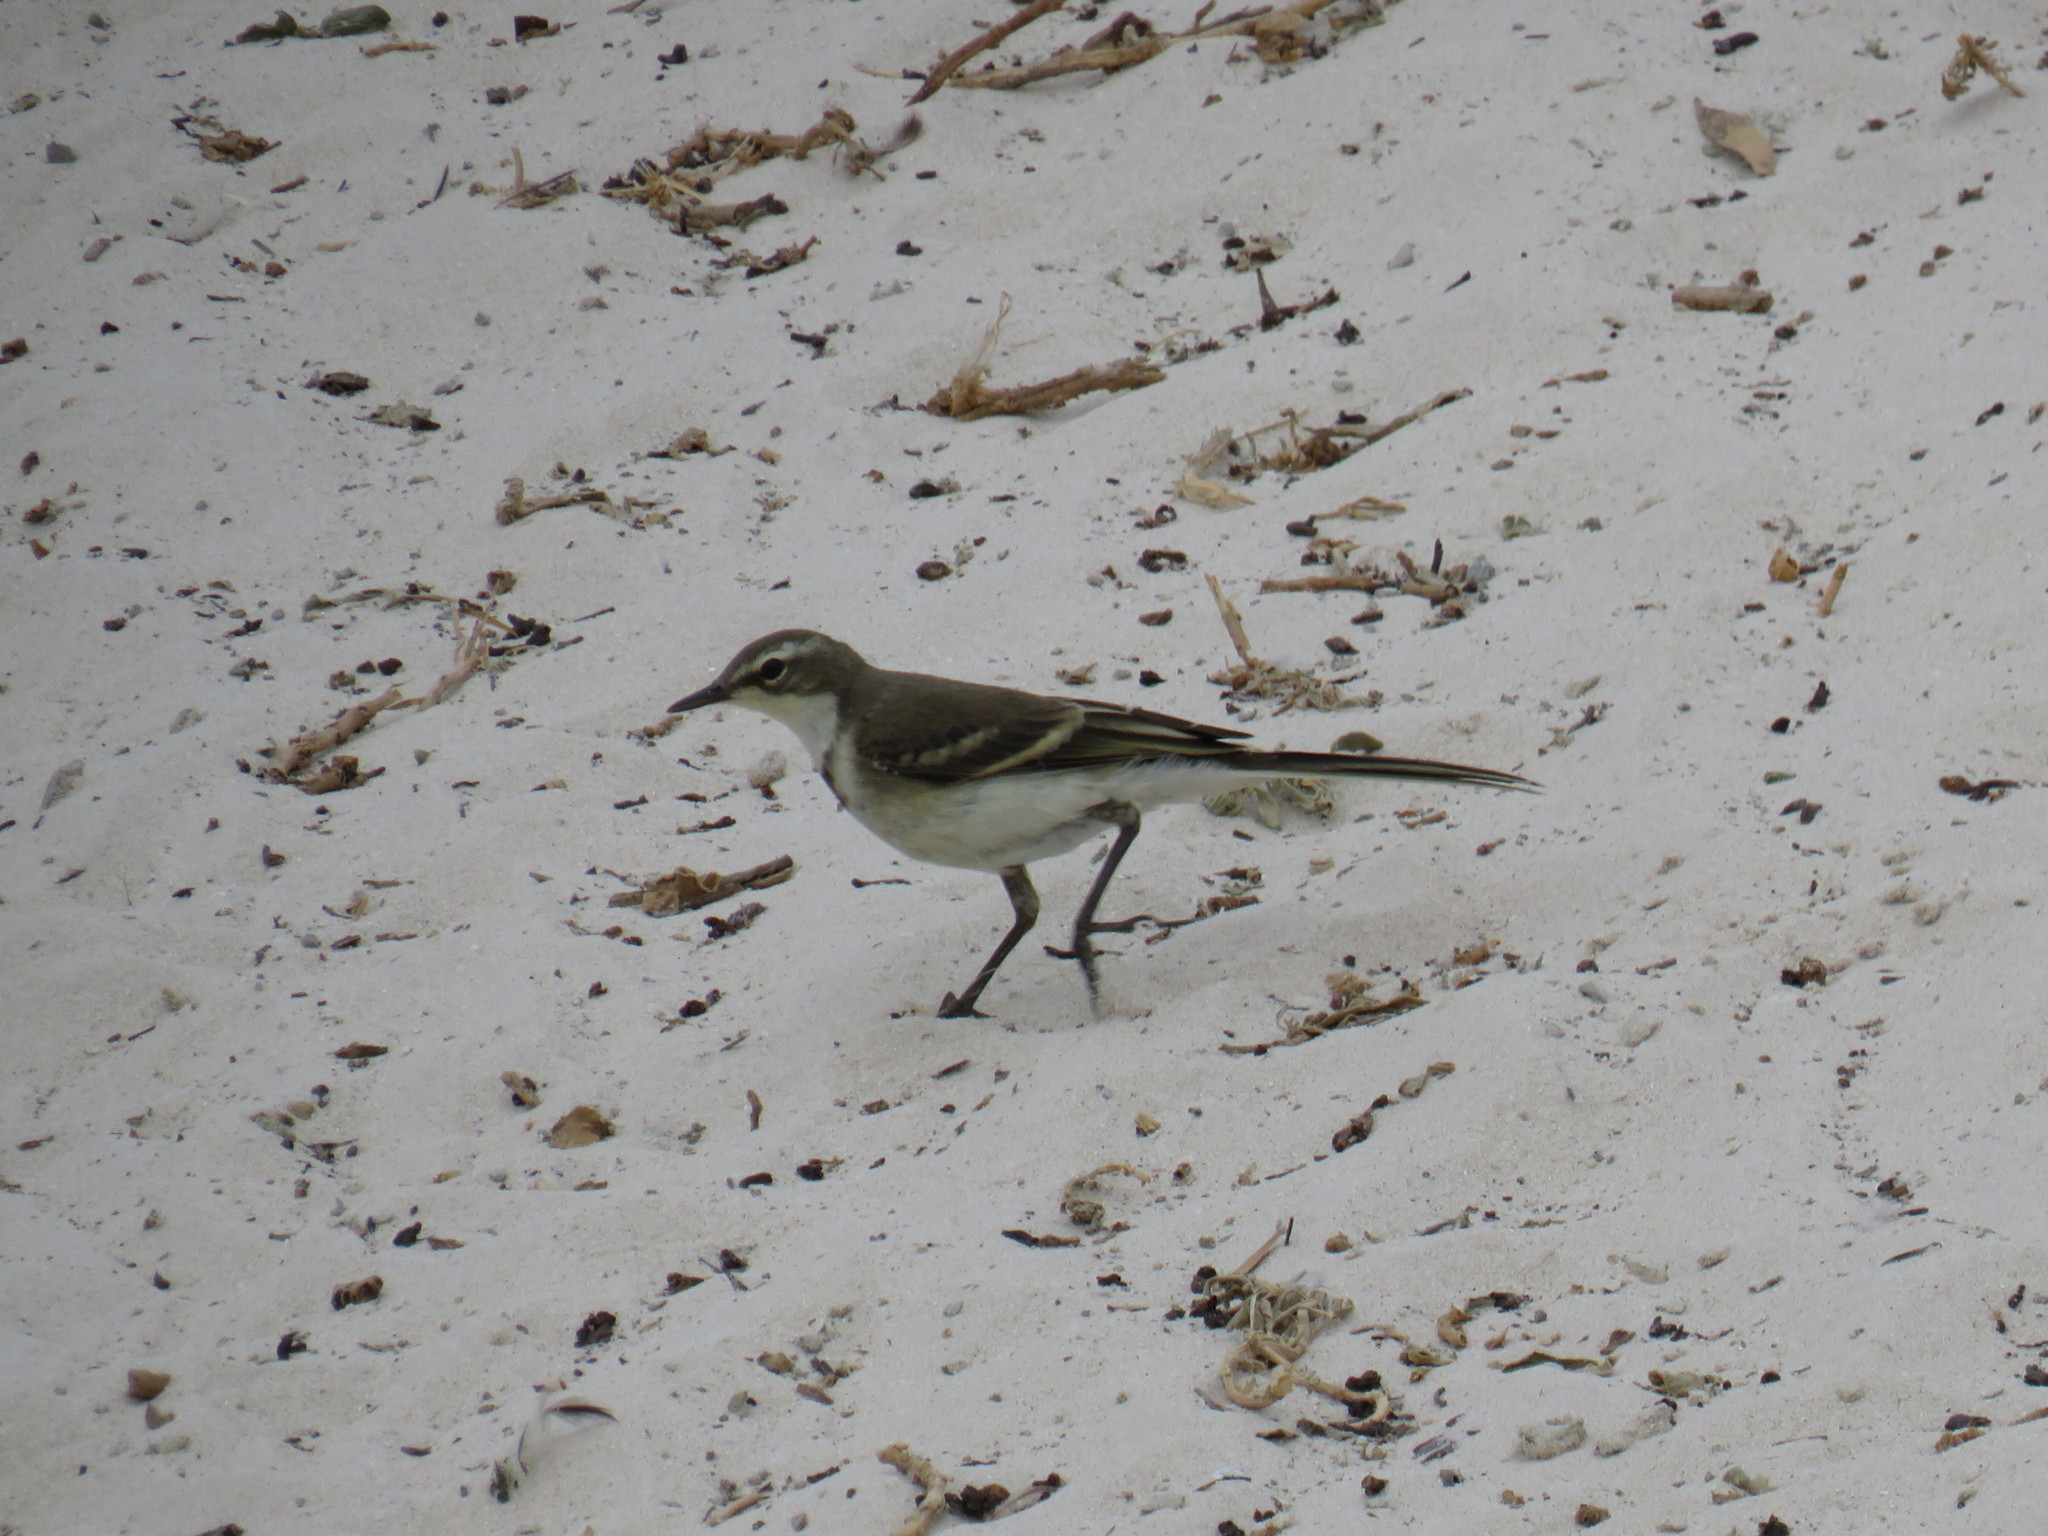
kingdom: Animalia
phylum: Chordata
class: Aves
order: Passeriformes
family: Motacillidae
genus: Motacilla
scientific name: Motacilla capensis
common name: Cape wagtail
